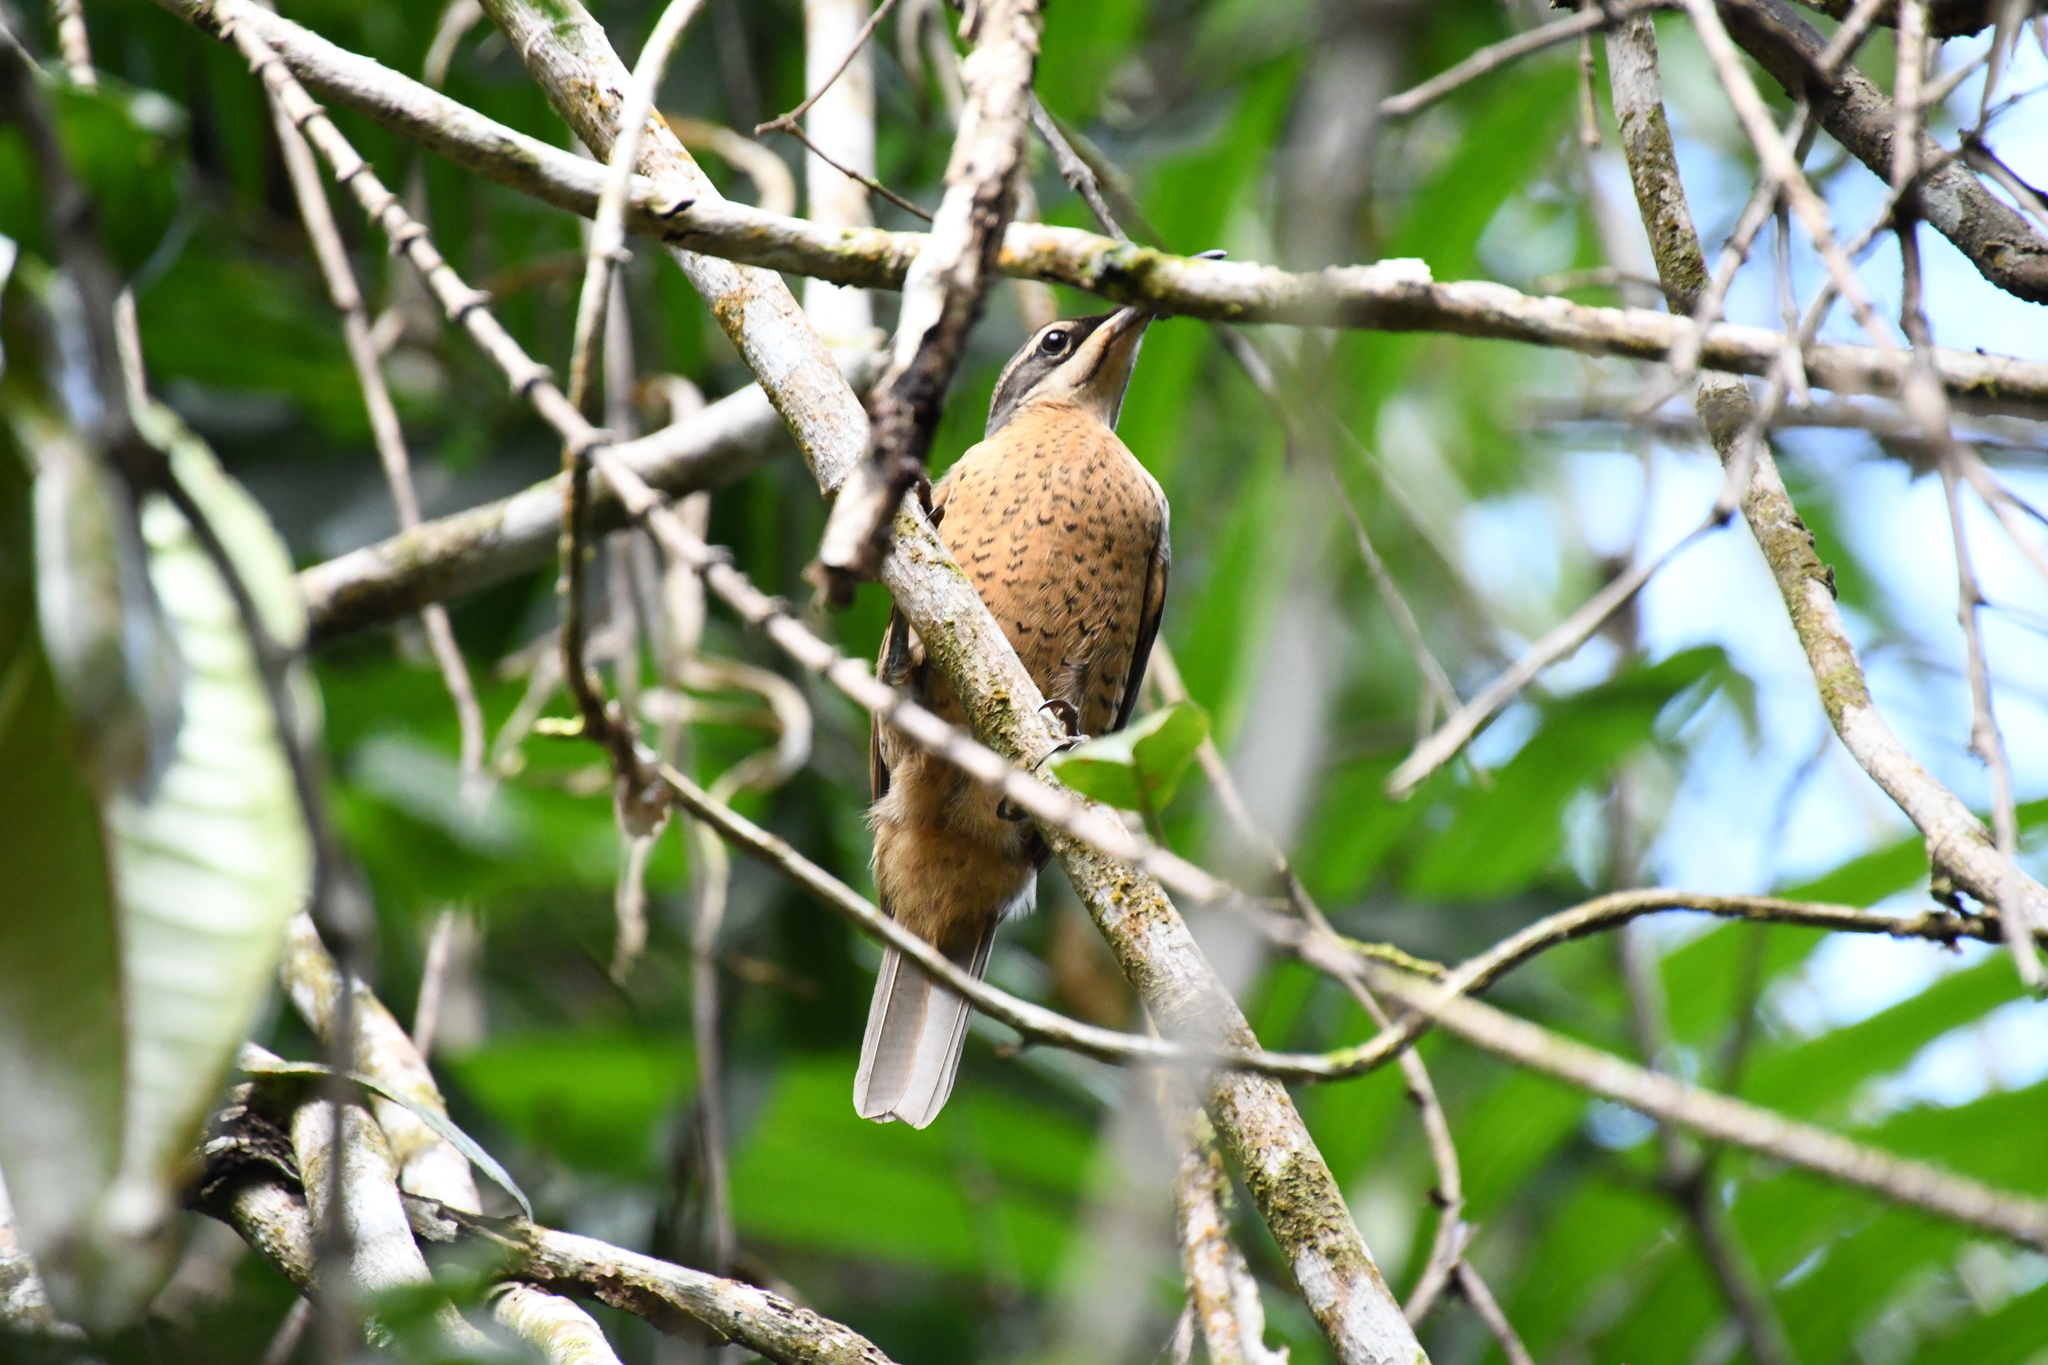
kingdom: Animalia
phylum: Chordata
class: Aves
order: Passeriformes
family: Paradisaeidae
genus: Ptiloris
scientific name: Ptiloris victoriae
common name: Victoria's riflebird
